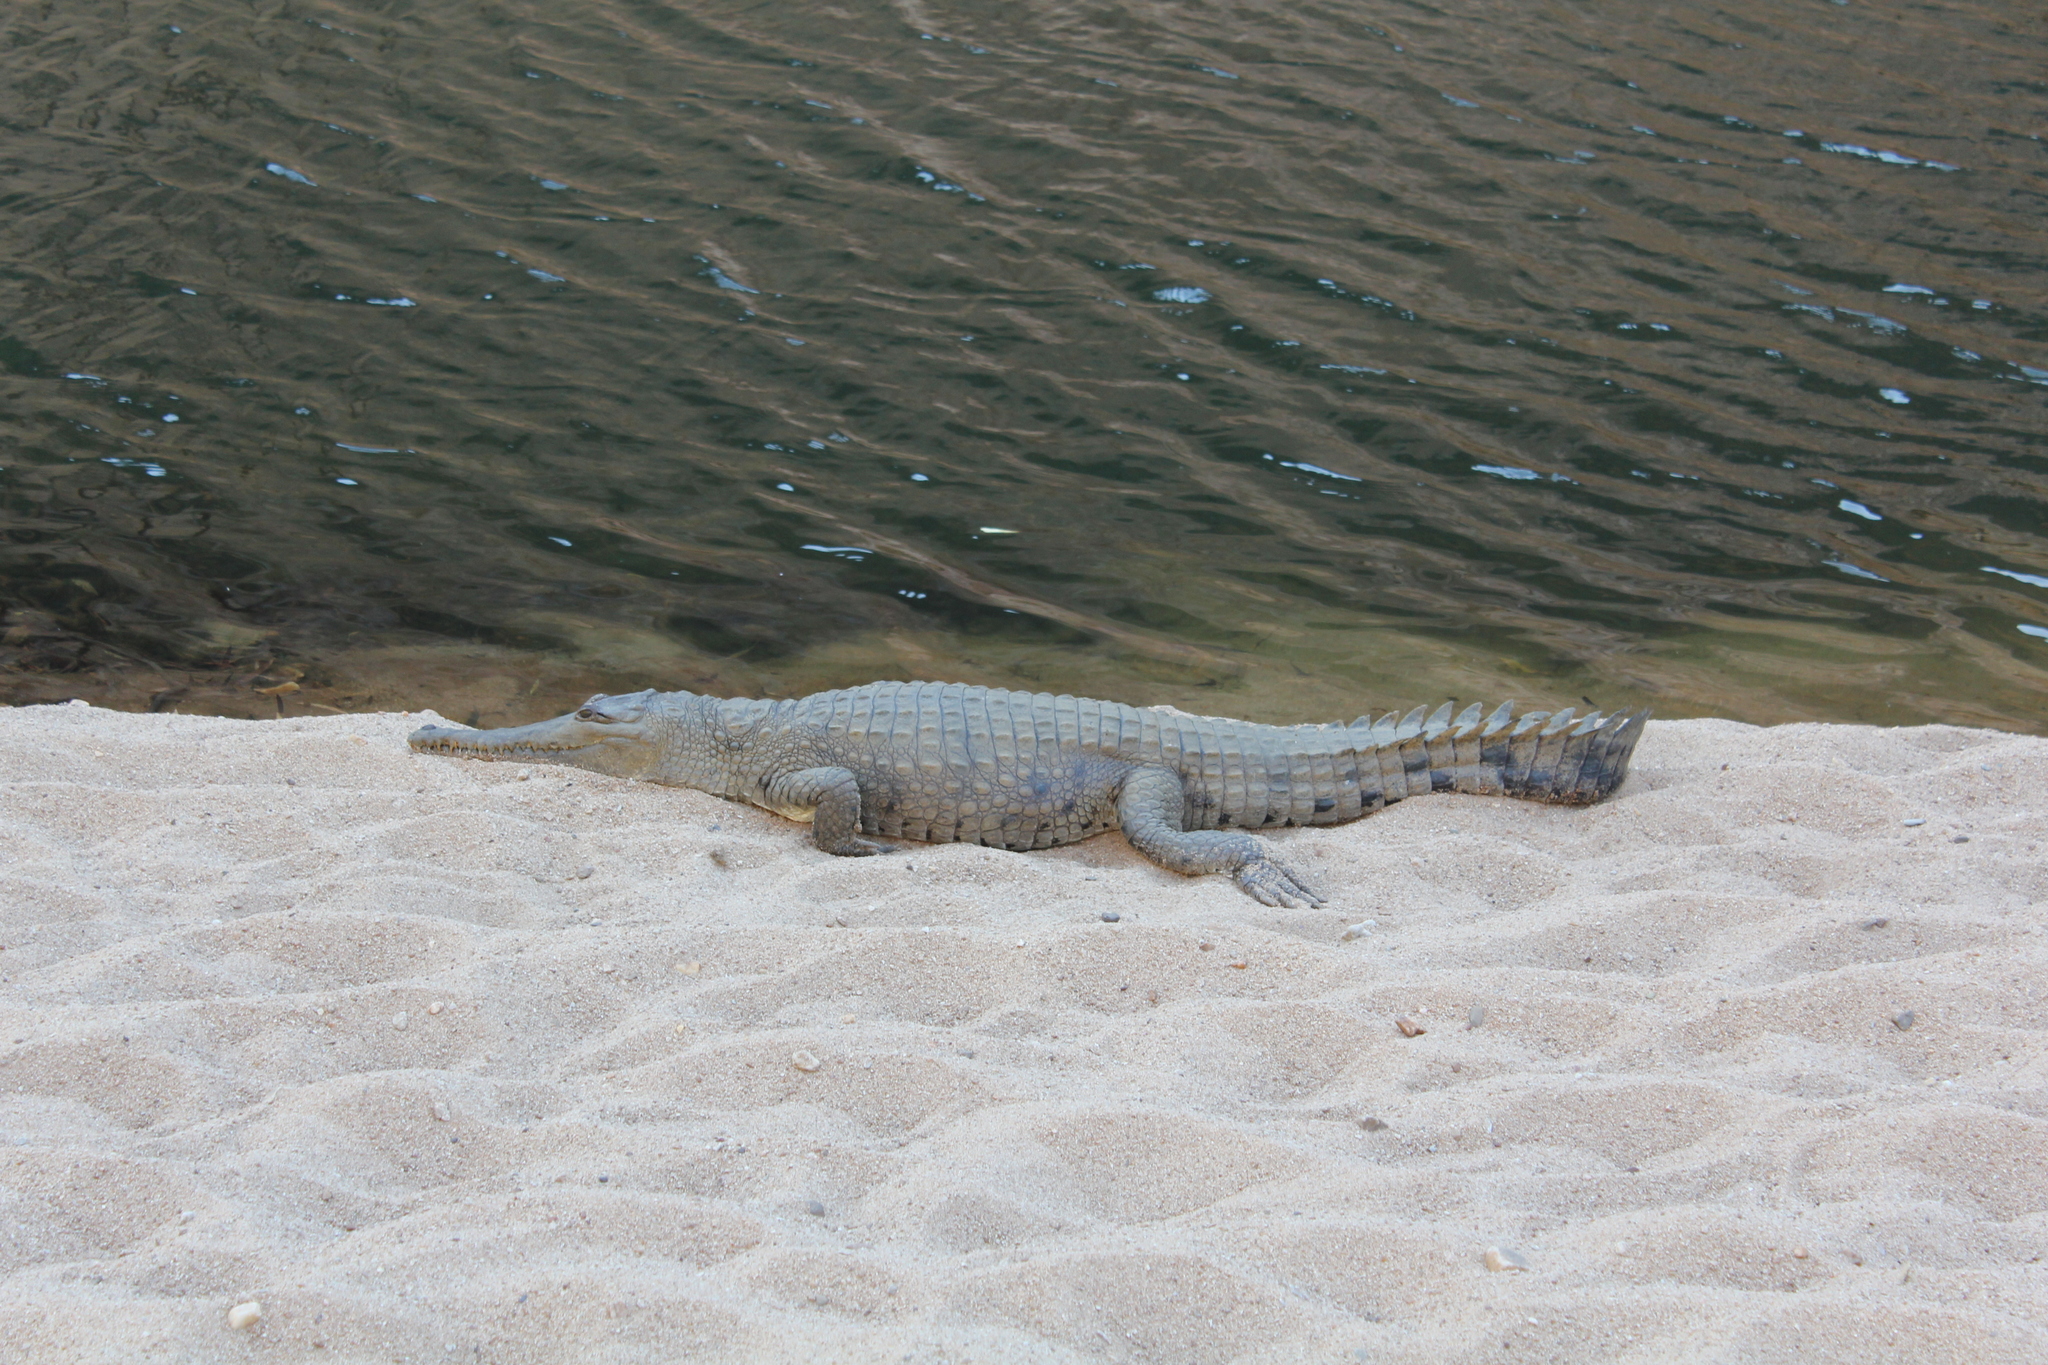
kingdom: Animalia
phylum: Chordata
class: Crocodylia
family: Crocodylidae
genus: Crocodylus
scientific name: Crocodylus johnsoni
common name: Freshwater crocodile
